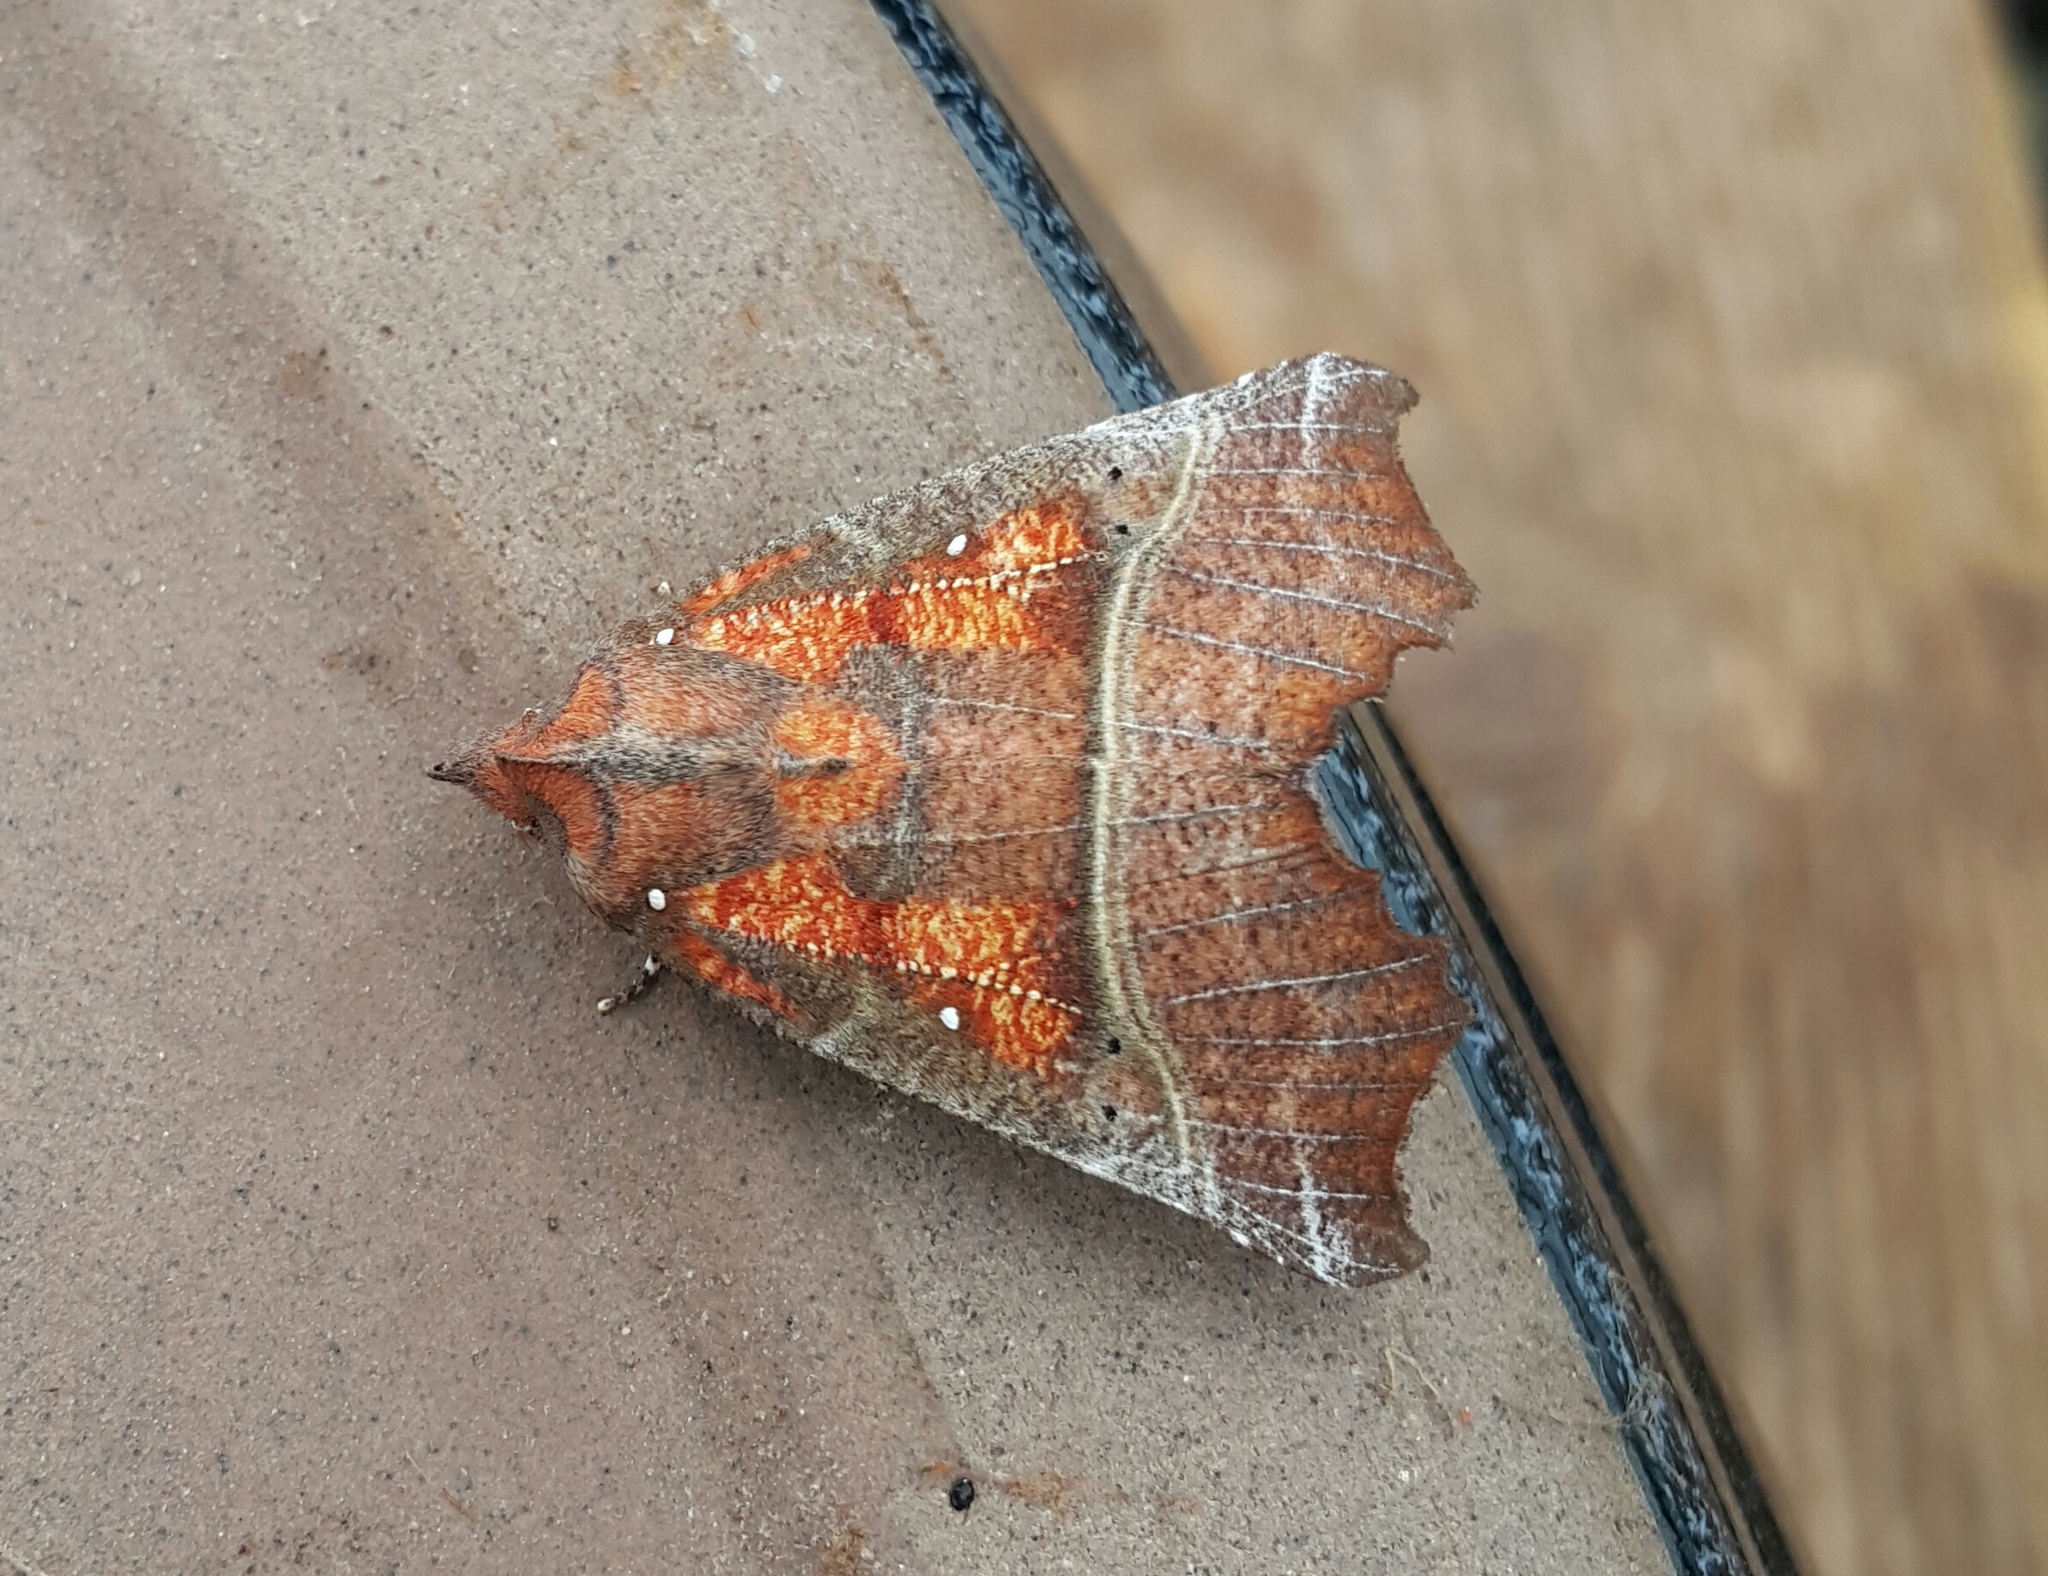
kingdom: Animalia
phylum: Arthropoda
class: Insecta
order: Lepidoptera
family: Erebidae
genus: Scoliopteryx
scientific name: Scoliopteryx libatrix
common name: Herald
